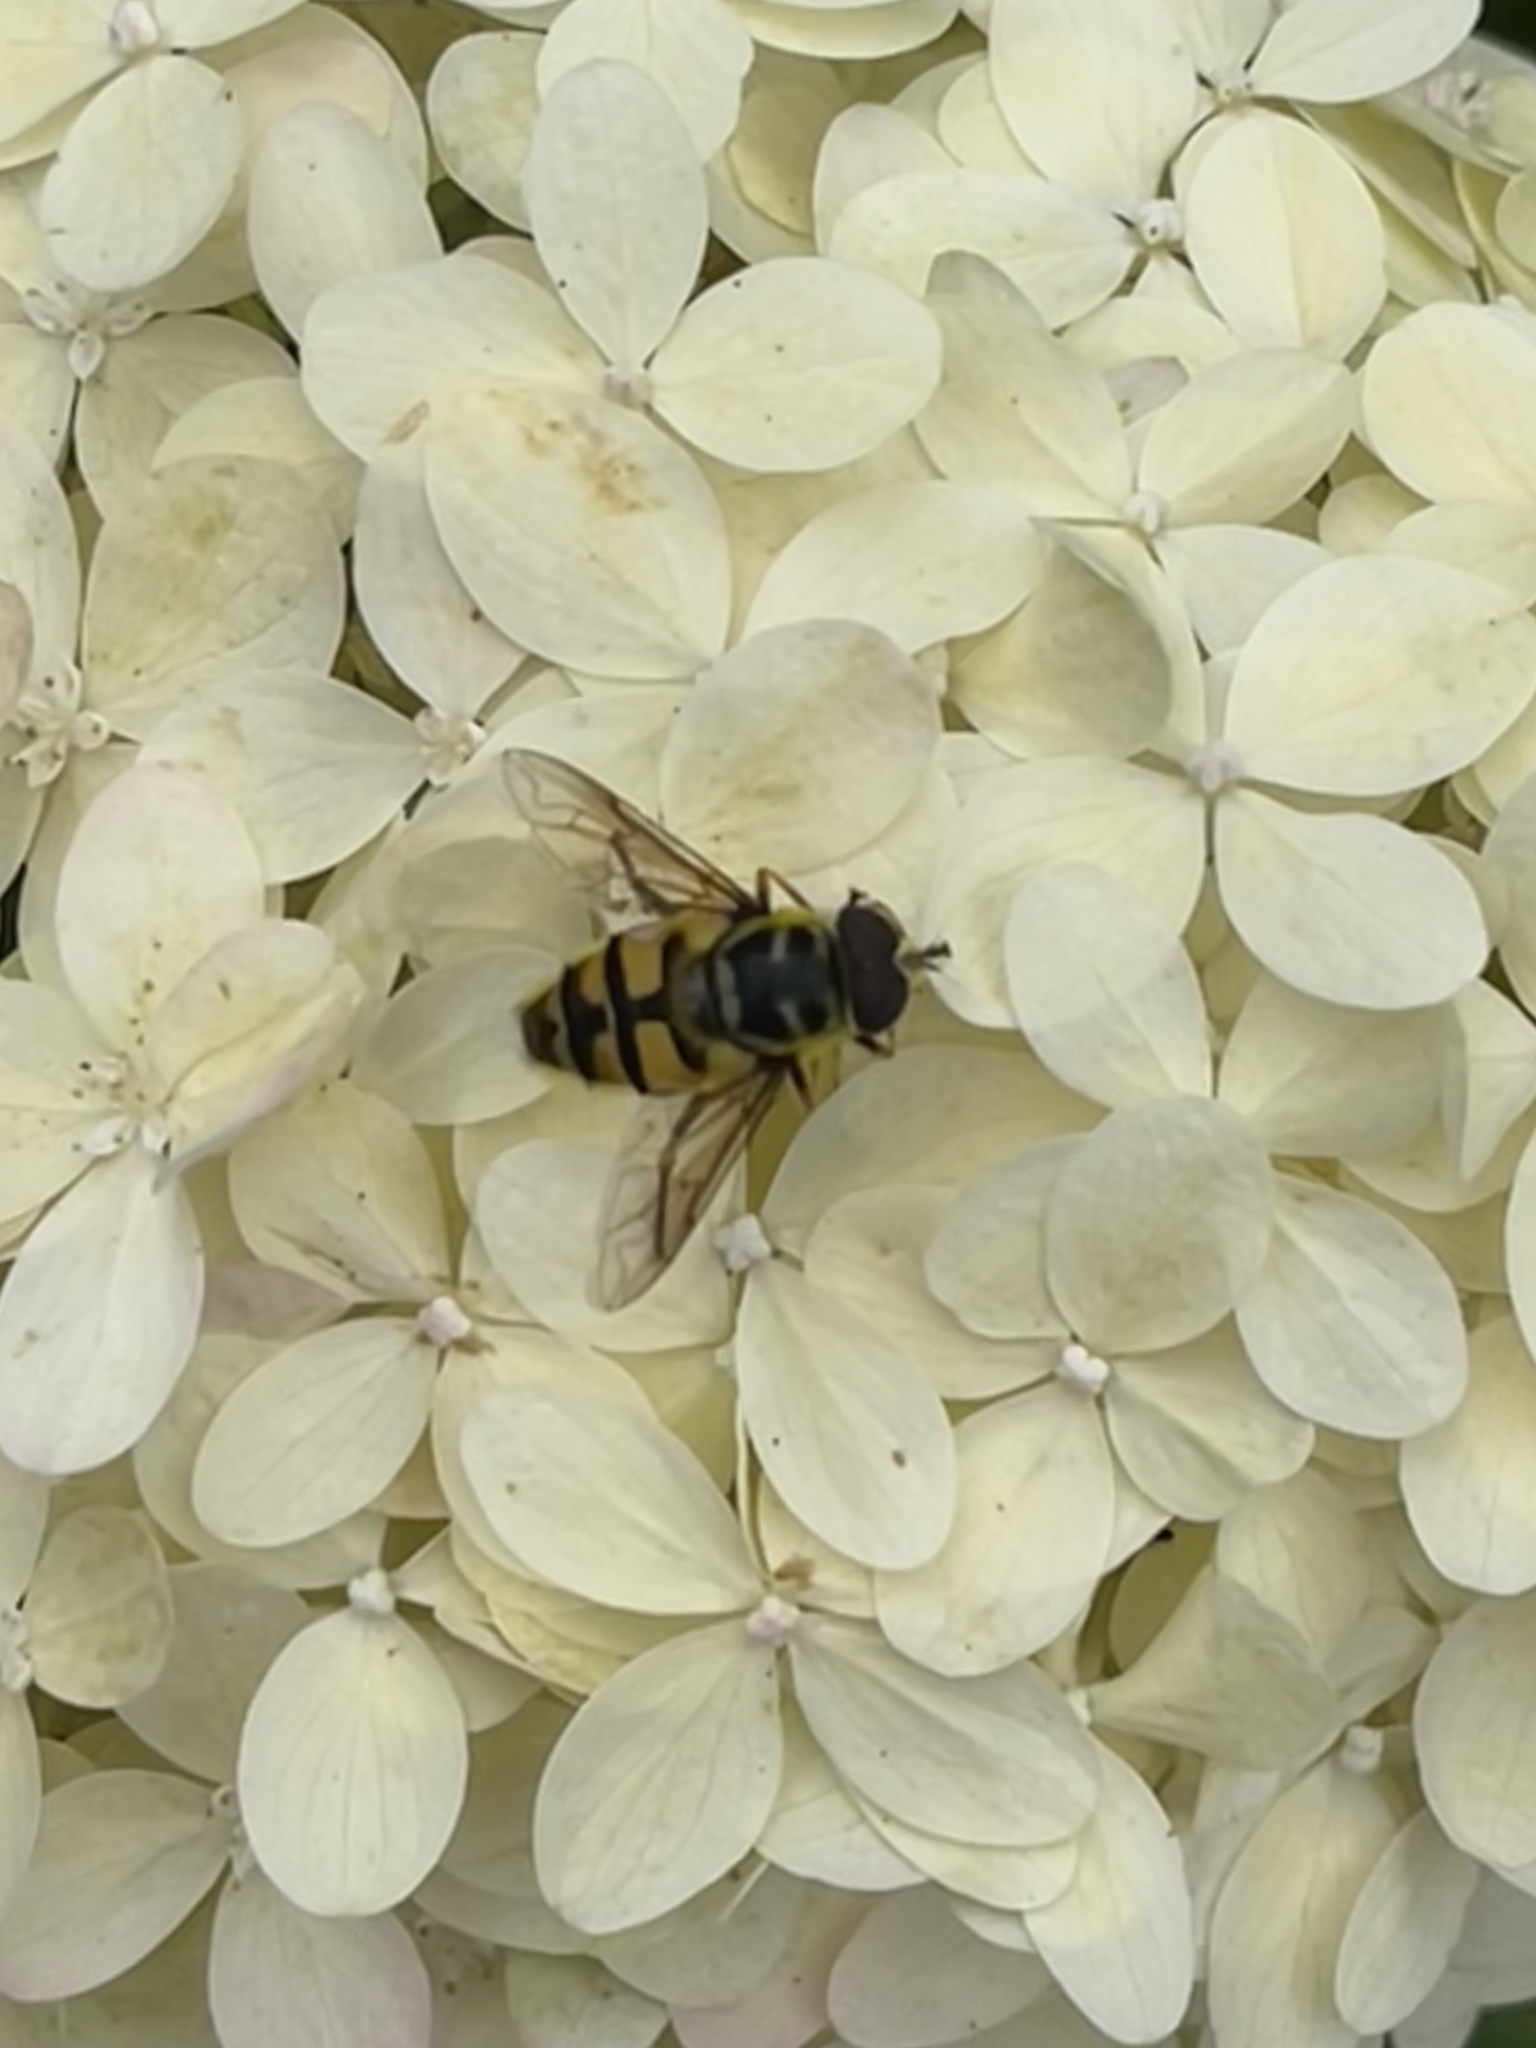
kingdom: Animalia
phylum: Arthropoda
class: Insecta
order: Diptera
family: Syrphidae
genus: Myathropa
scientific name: Myathropa florea
